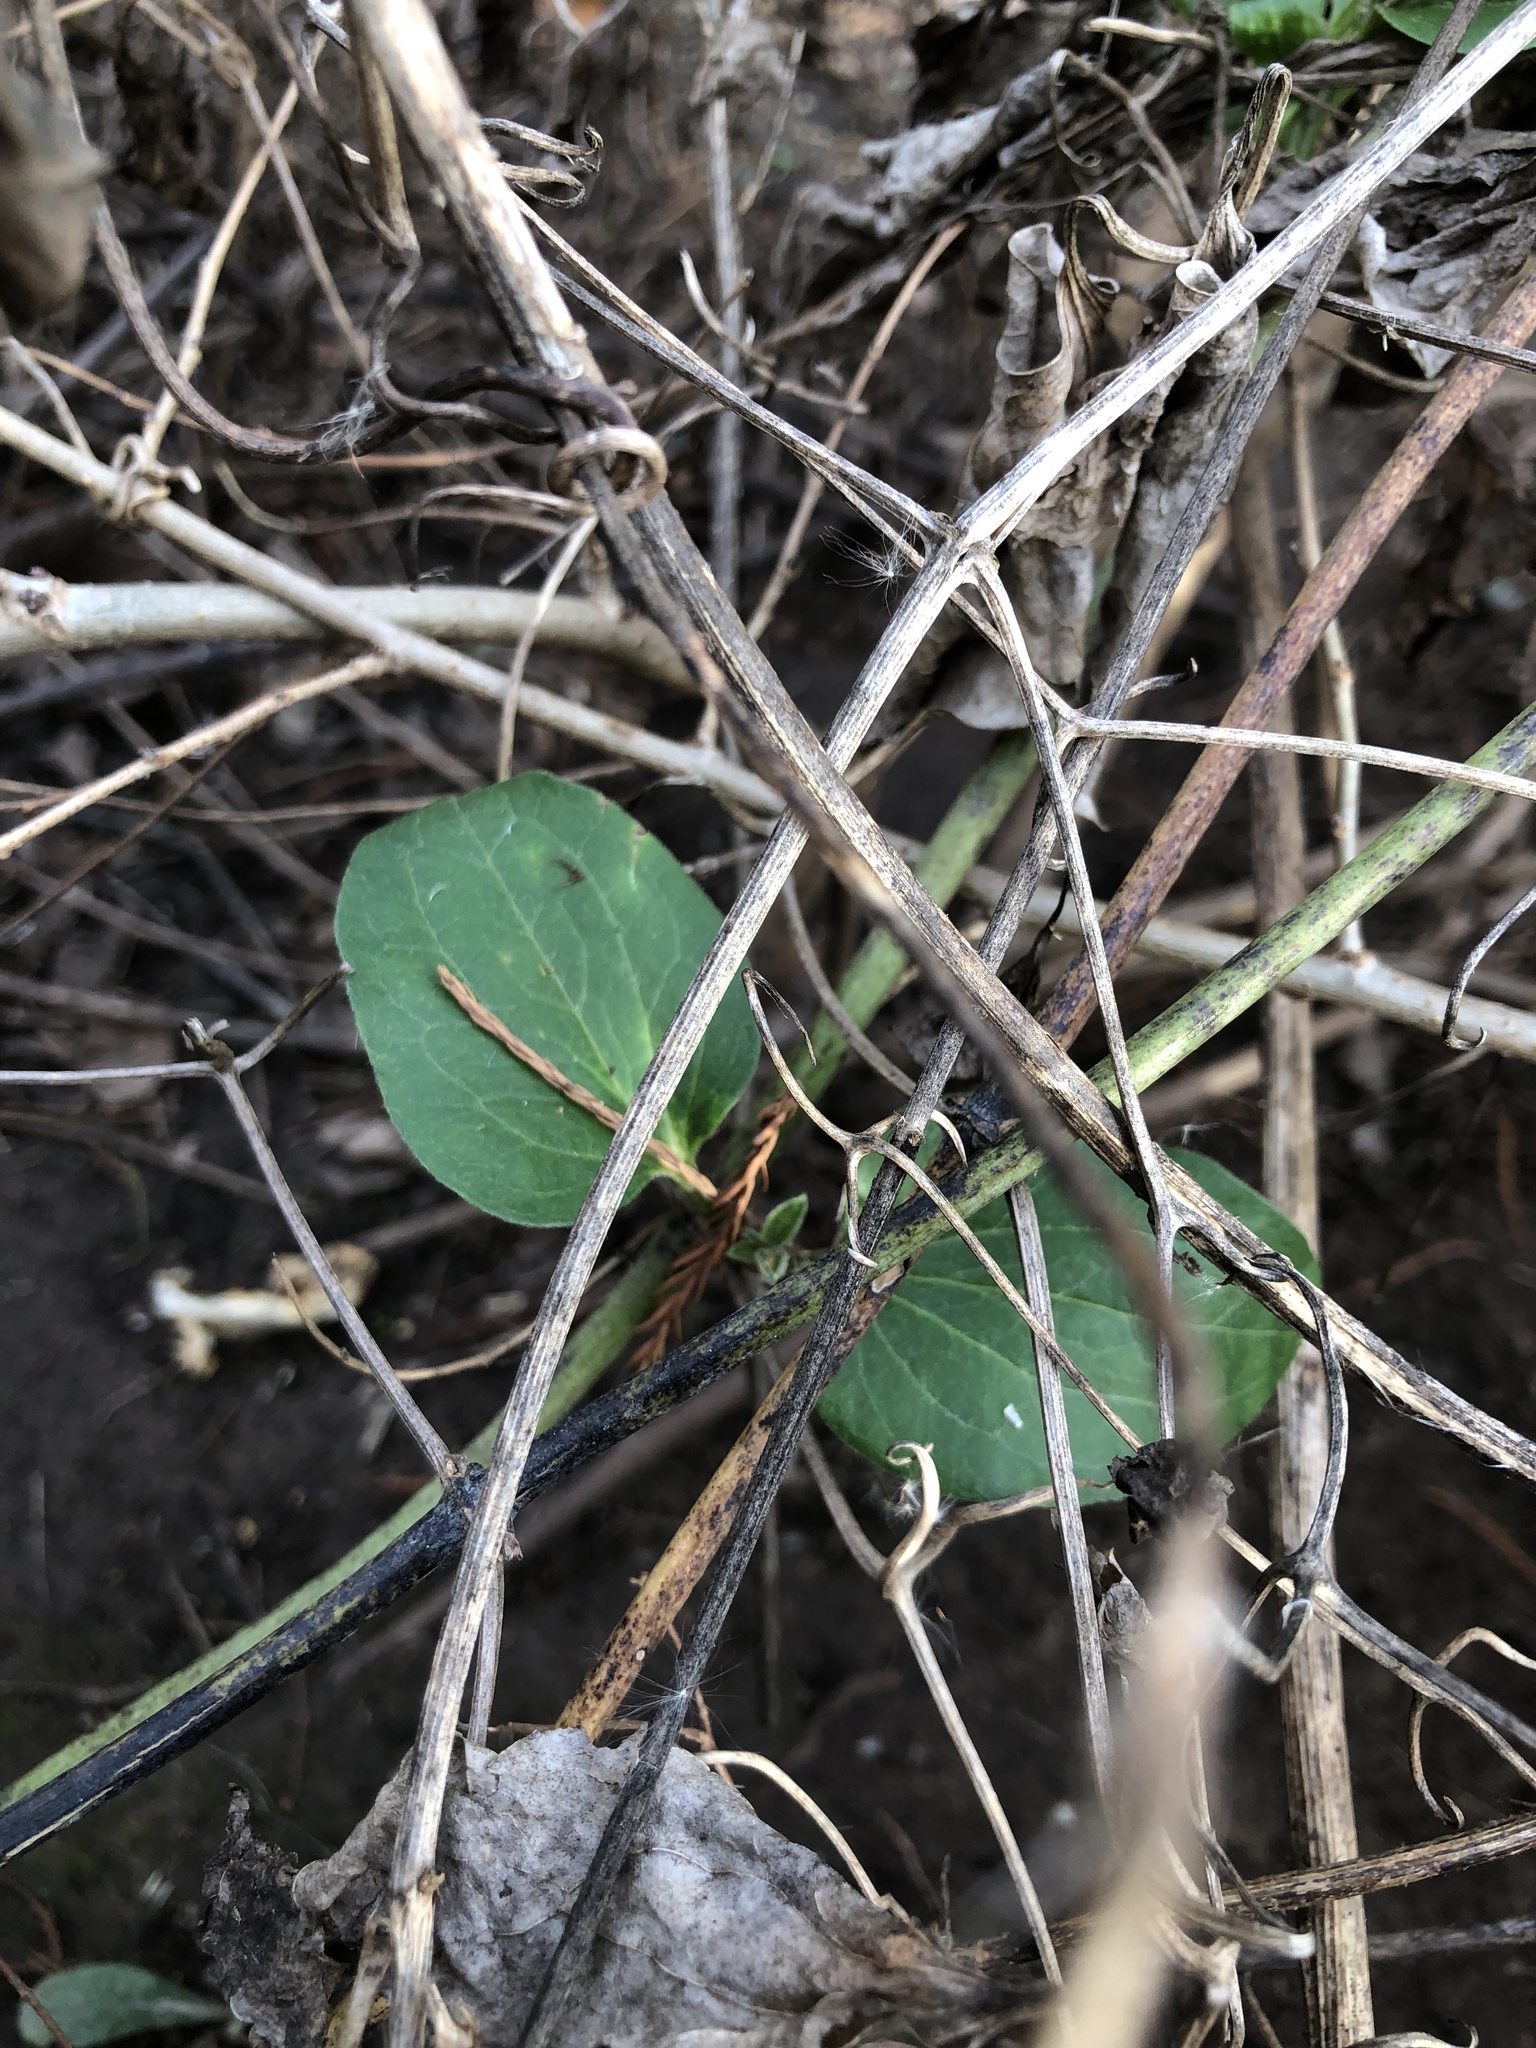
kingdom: Plantae
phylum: Tracheophyta
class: Magnoliopsida
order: Ranunculales
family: Ranunculaceae
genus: Clematis
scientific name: Clematis terniflora
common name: Sweet autumn clematis
